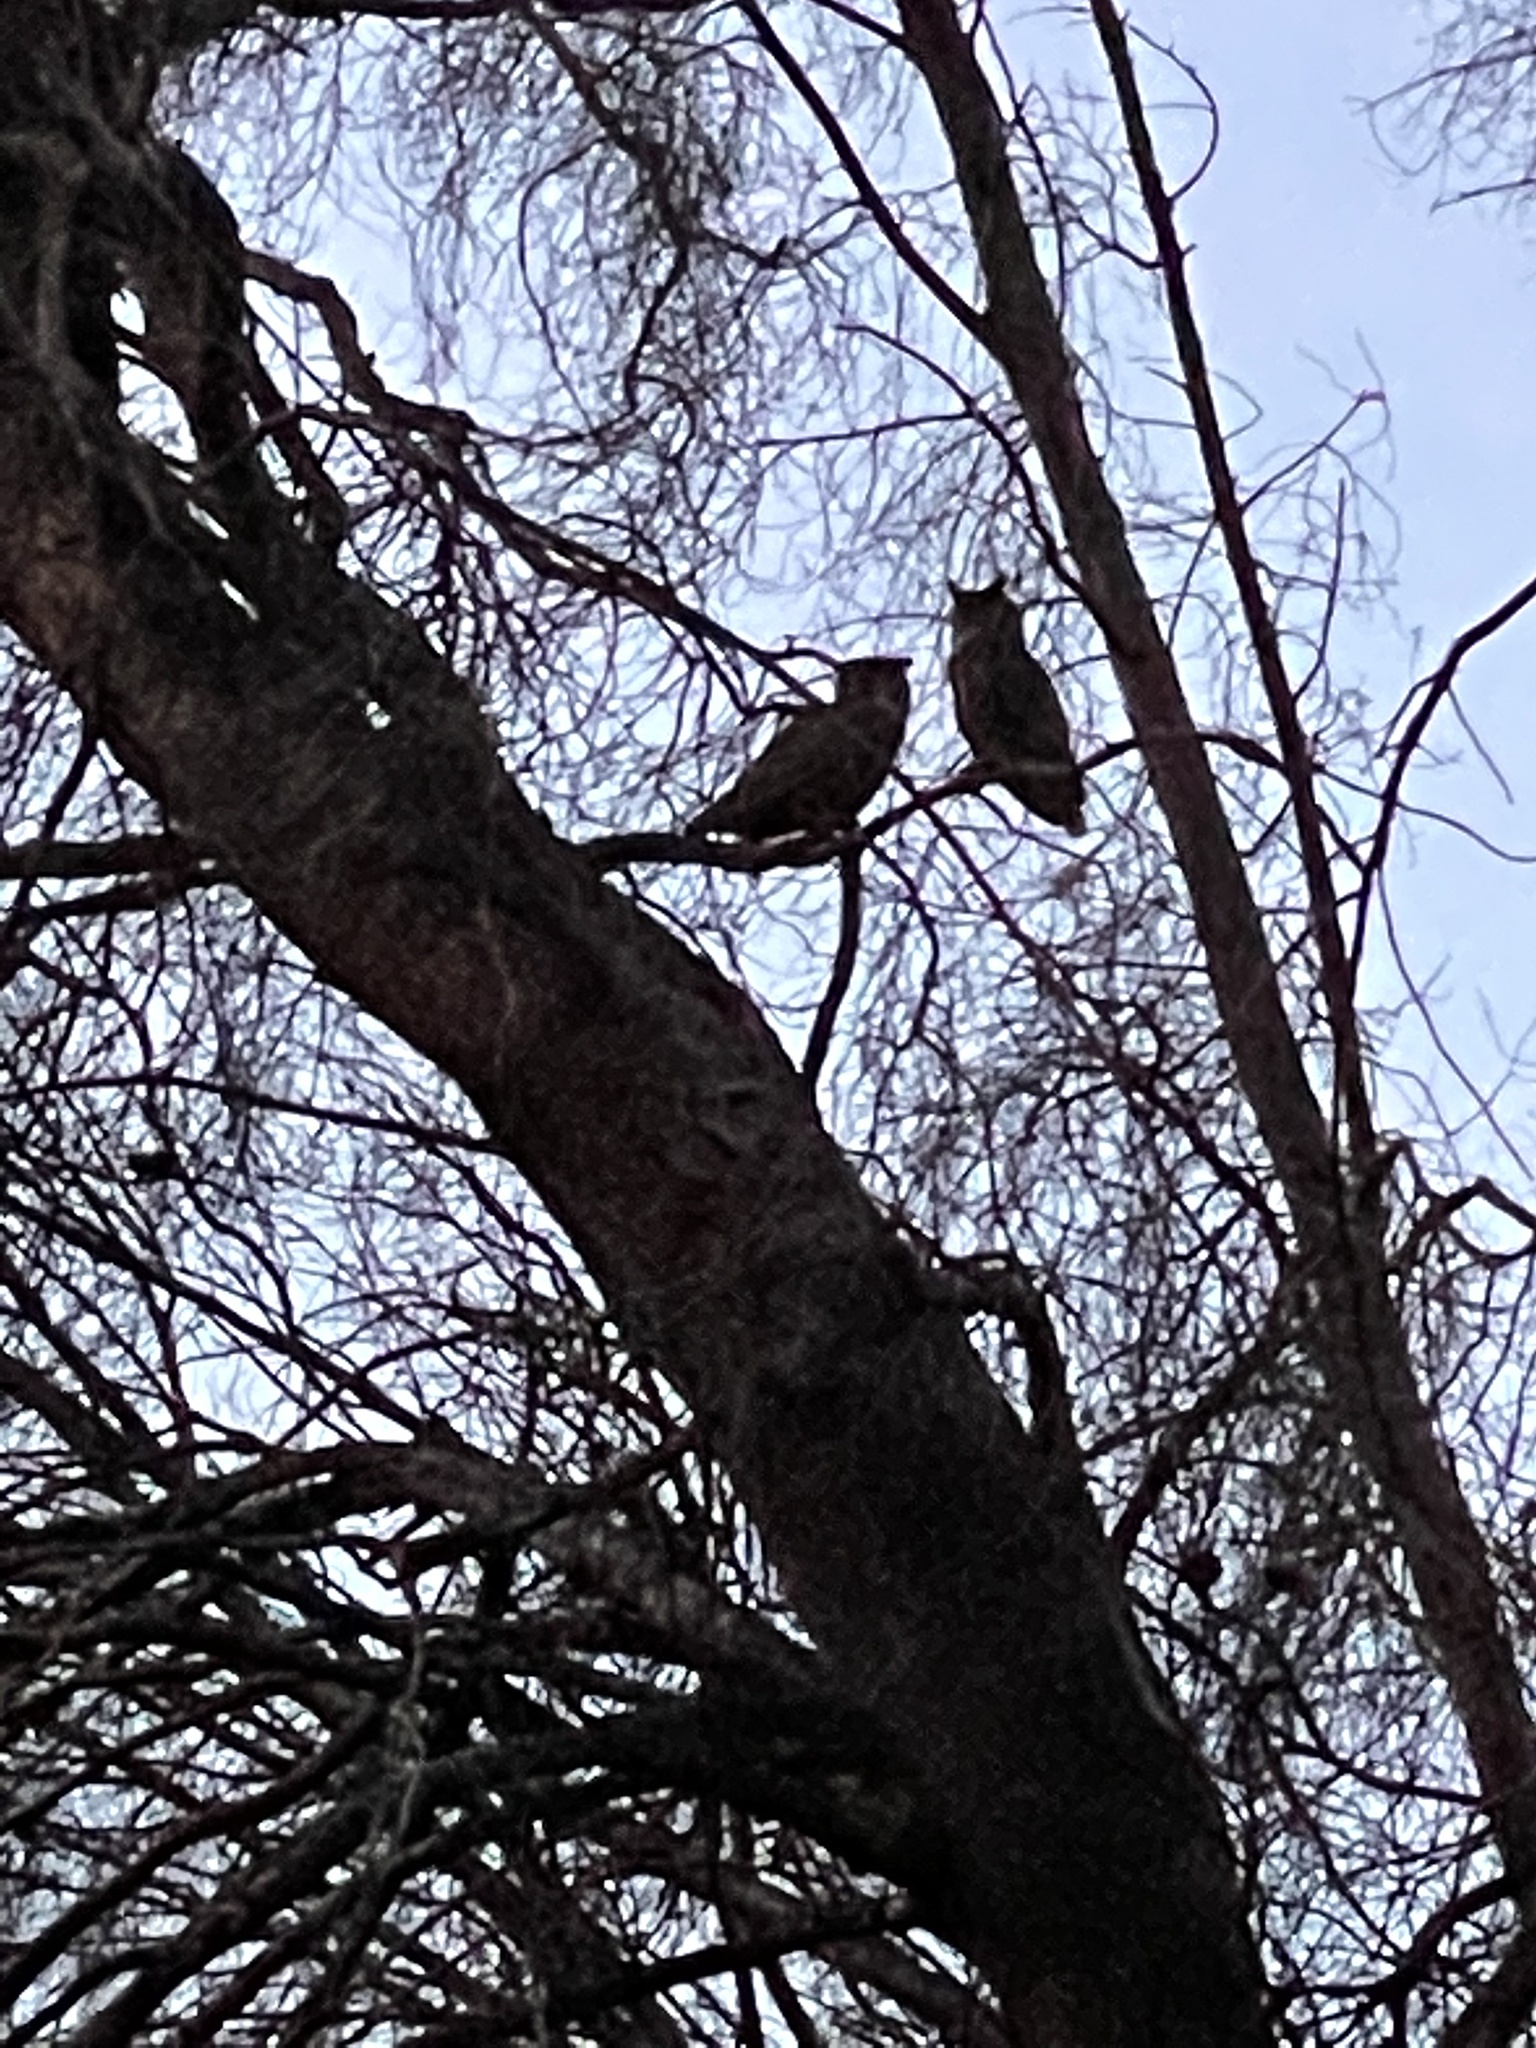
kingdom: Animalia
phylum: Chordata
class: Aves
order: Strigiformes
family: Strigidae
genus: Bubo
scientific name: Bubo virginianus
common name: Great horned owl
